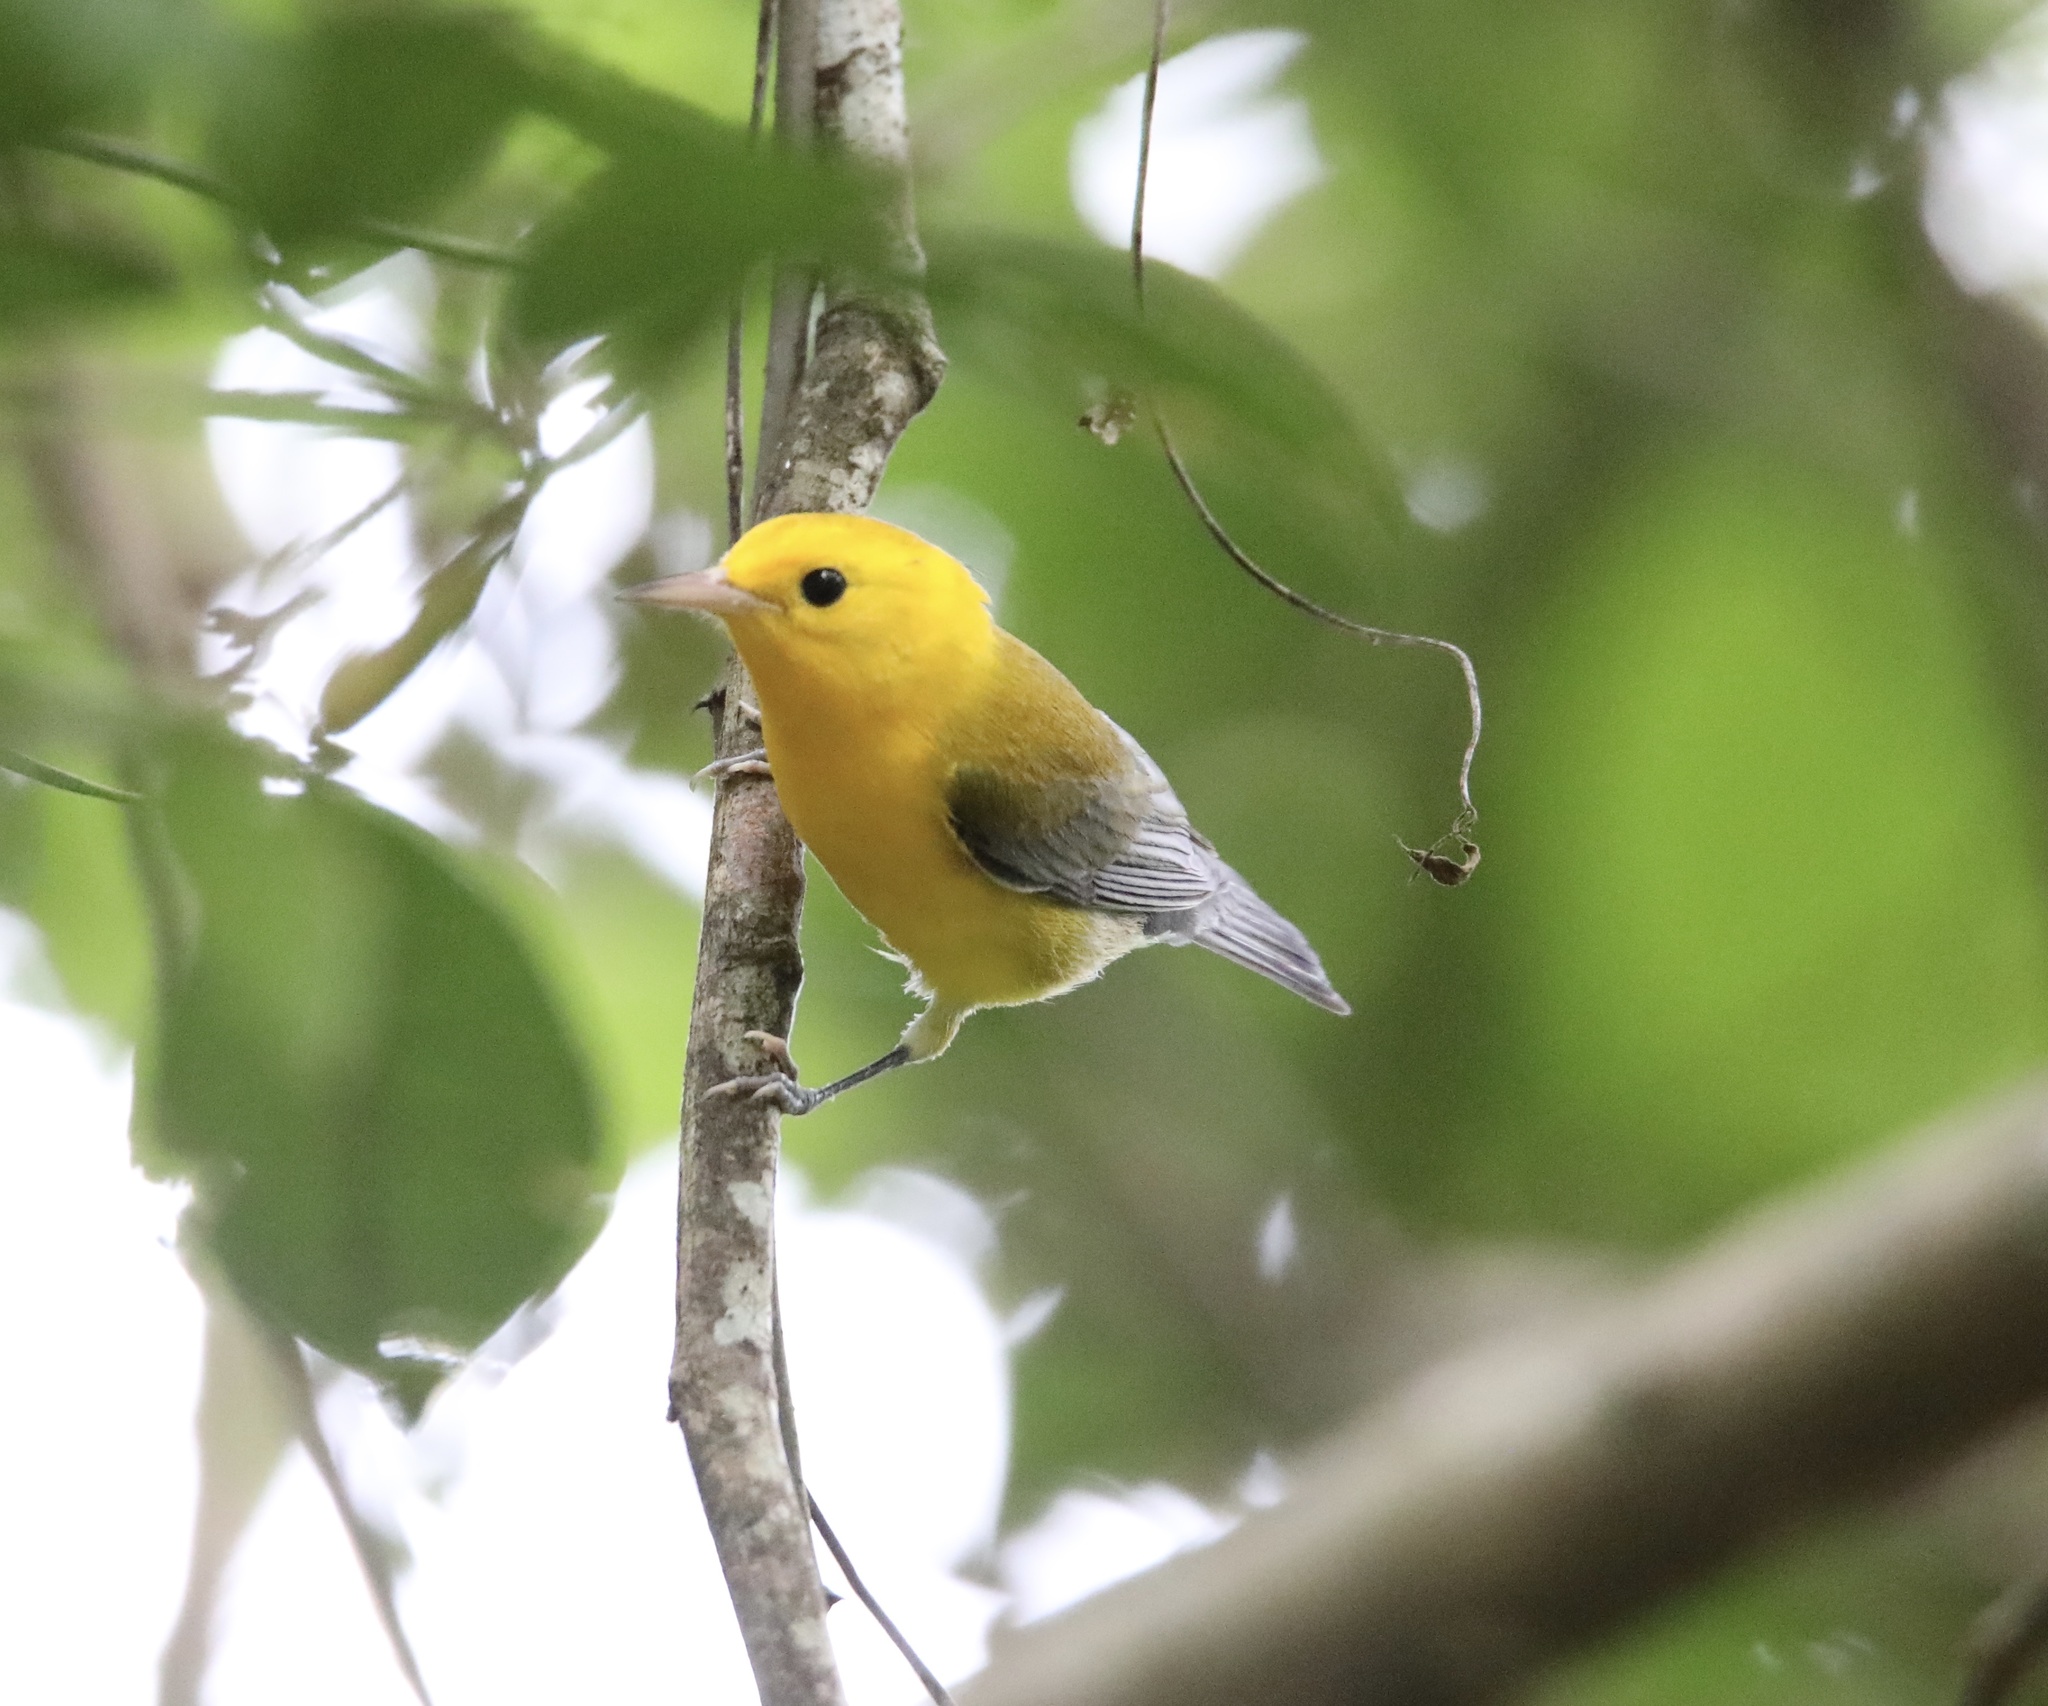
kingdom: Animalia
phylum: Chordata
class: Aves
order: Passeriformes
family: Parulidae
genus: Protonotaria
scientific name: Protonotaria citrea
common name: Prothonotary warbler
